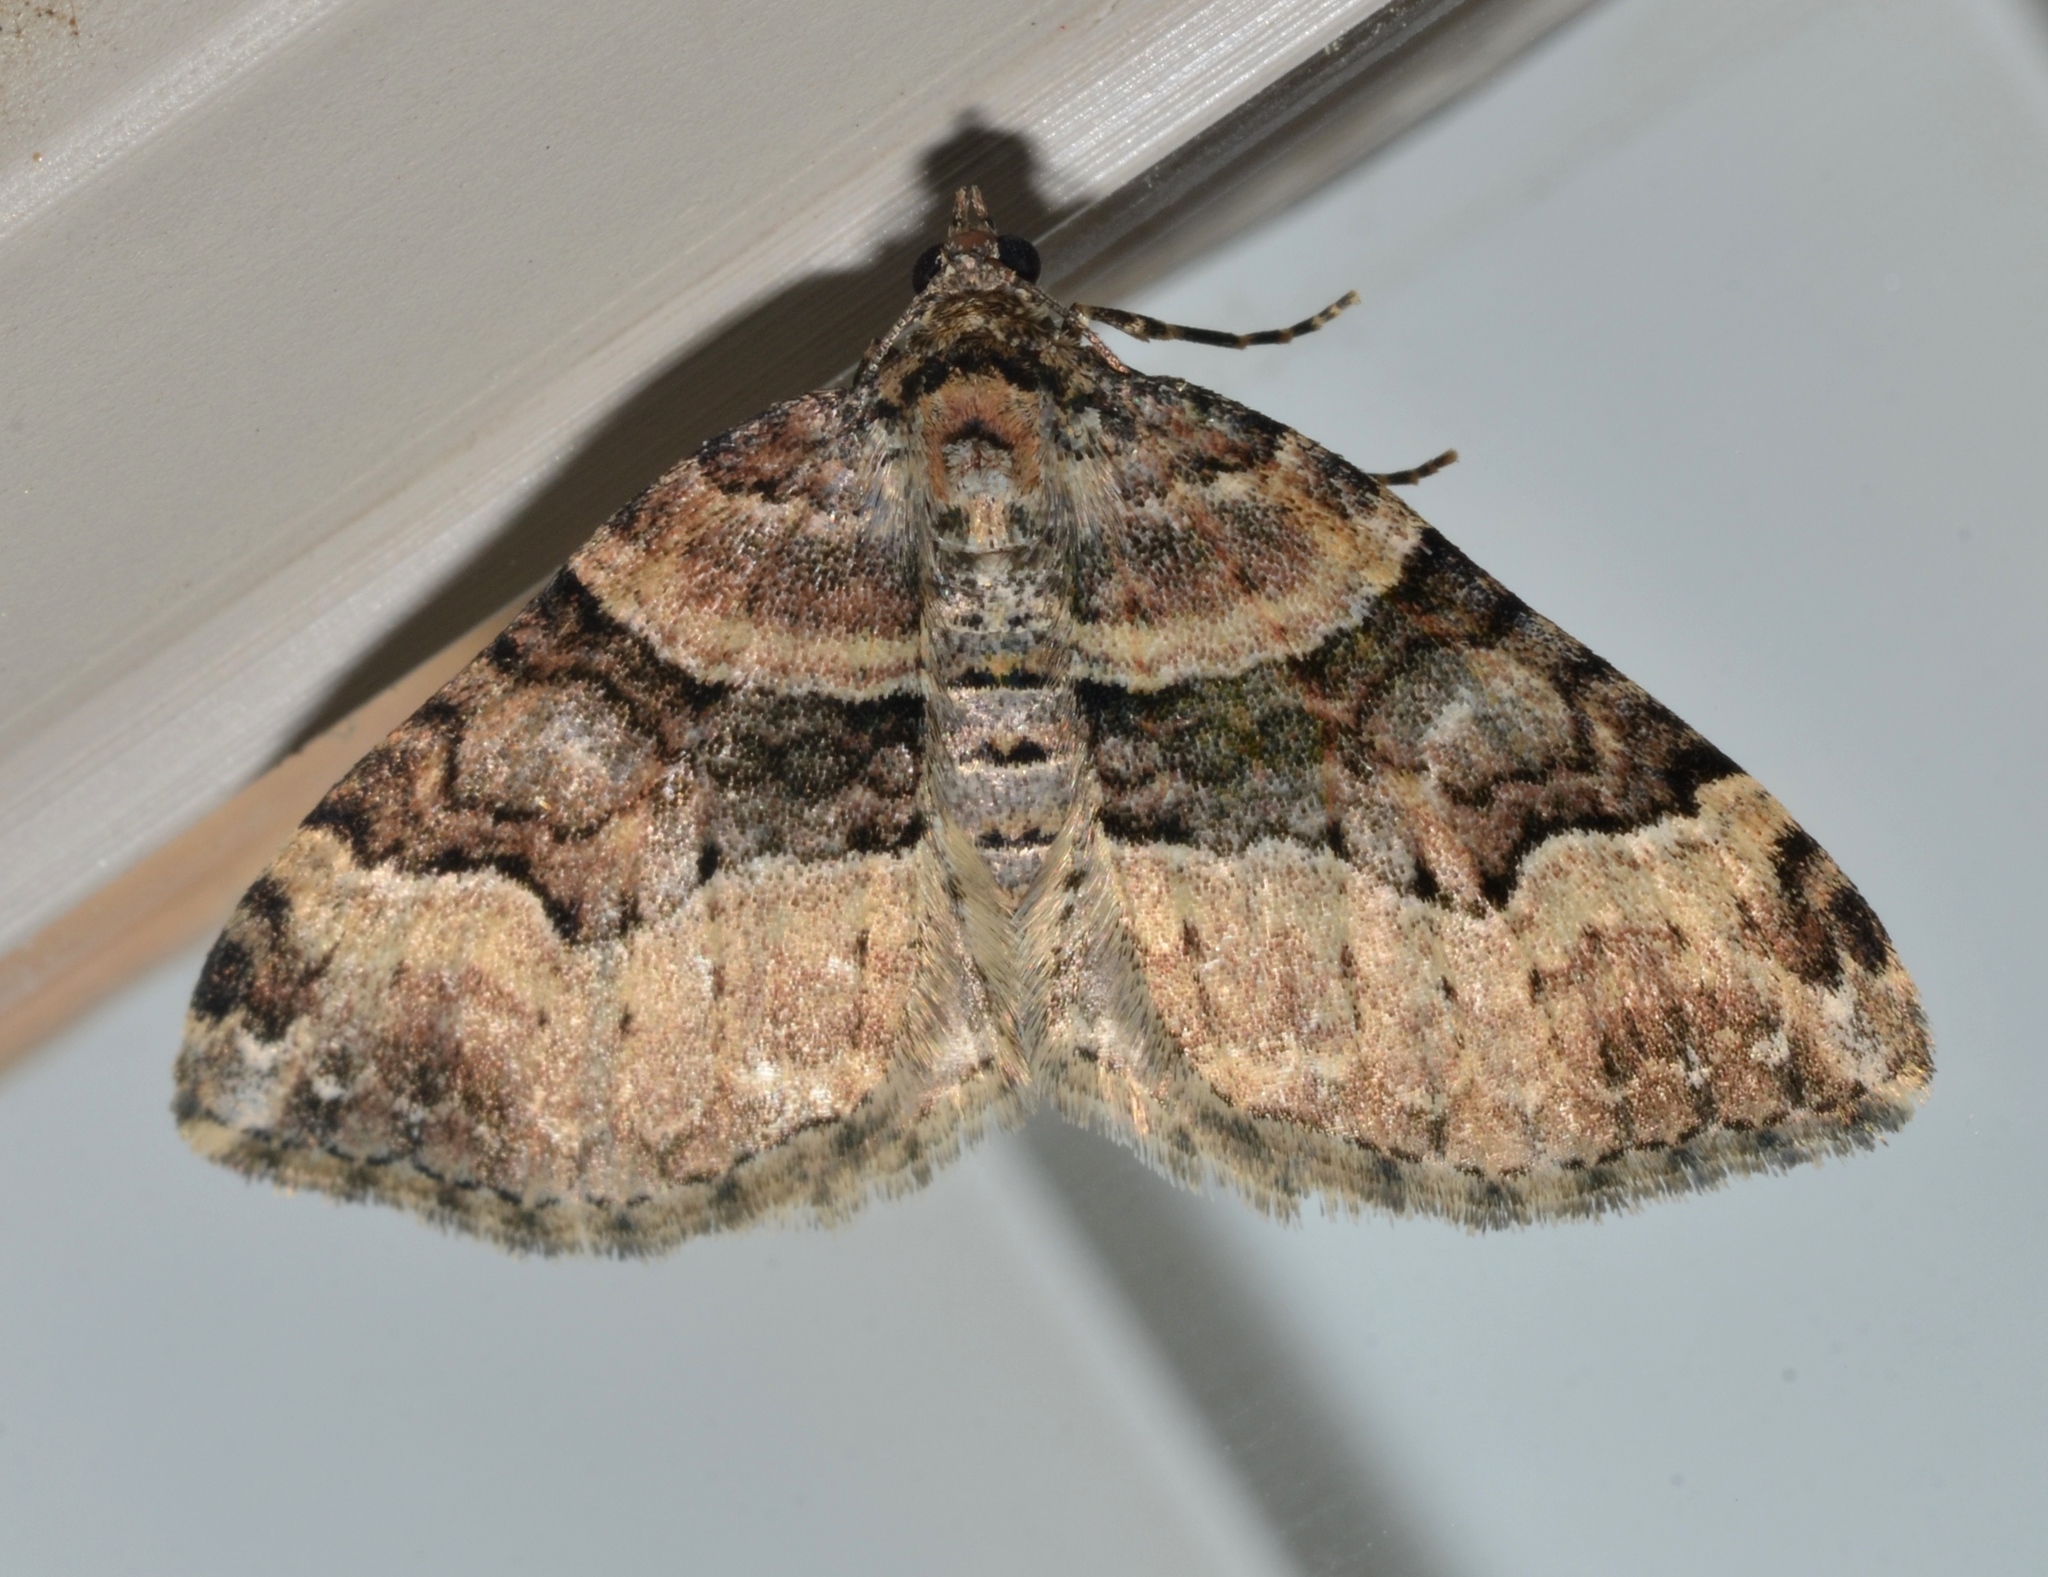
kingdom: Animalia
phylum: Arthropoda
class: Insecta
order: Lepidoptera
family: Geometridae
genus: Xanthorhoe
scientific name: Xanthorhoe lacustrata
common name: Toothed brown carpet
